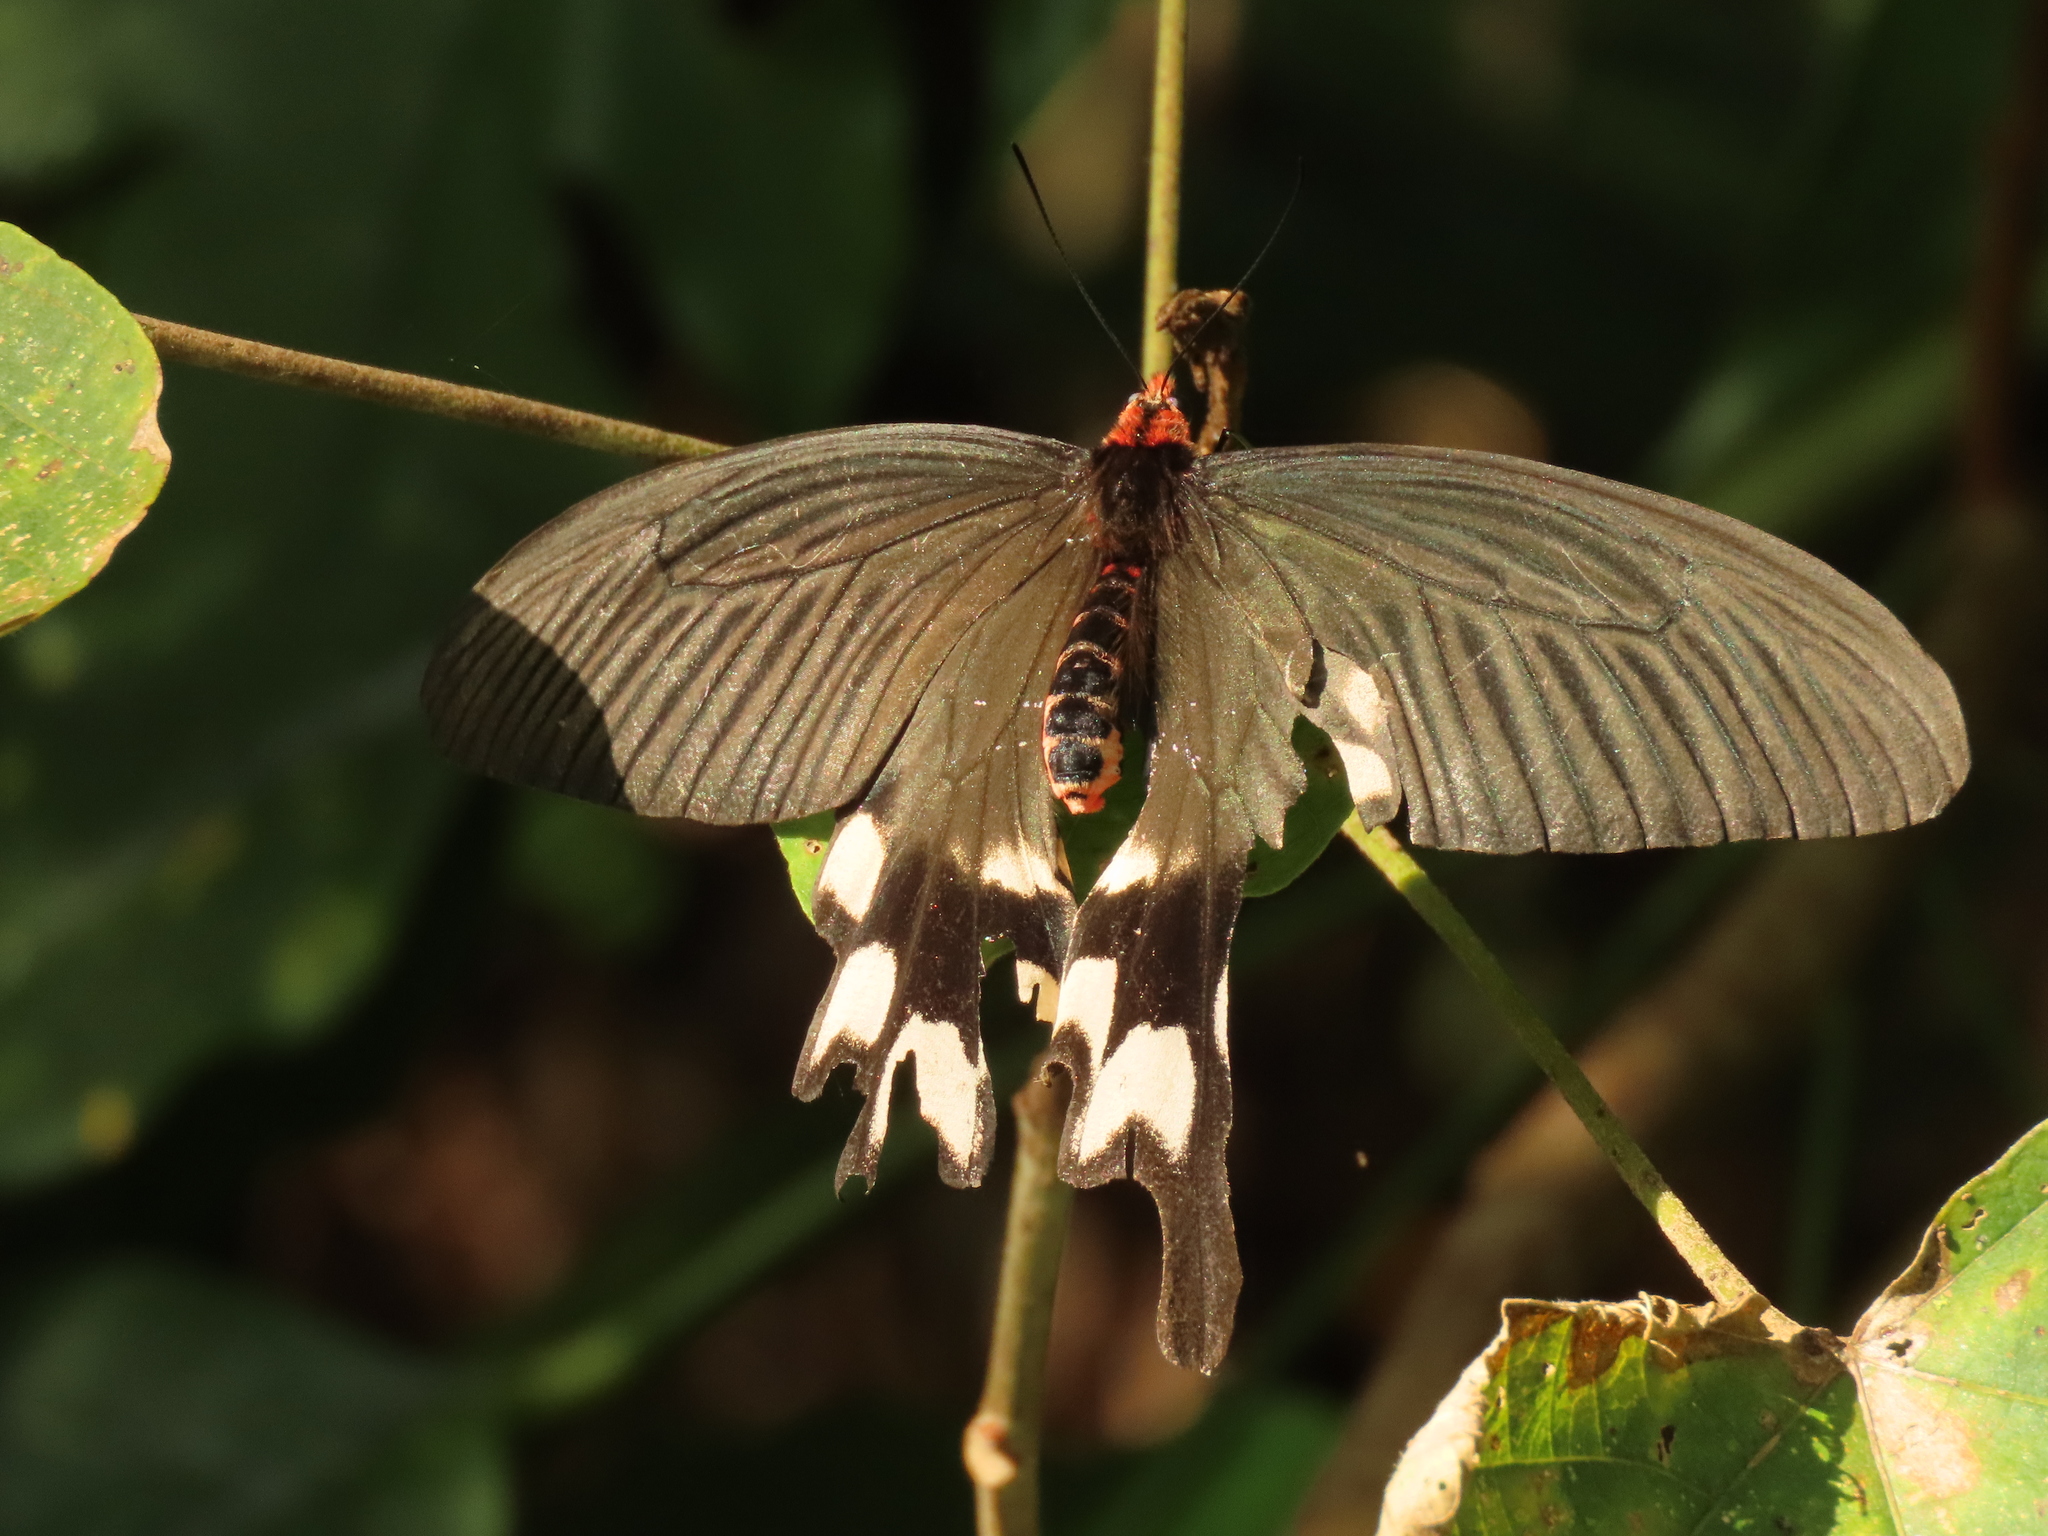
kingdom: Animalia
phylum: Arthropoda
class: Insecta
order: Lepidoptera
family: Papilionidae
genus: Byasa
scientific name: Byasa impediens
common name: Pink-spotted windmill
